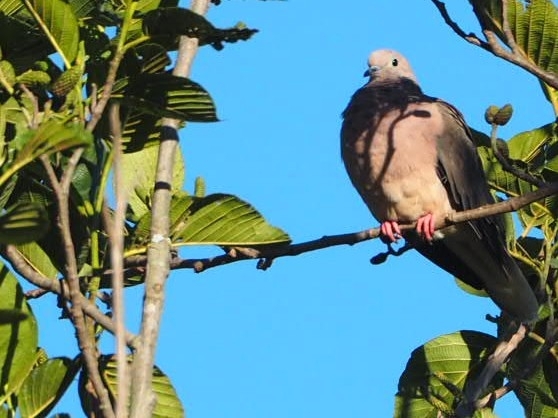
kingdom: Animalia
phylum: Chordata
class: Aves
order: Columbiformes
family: Columbidae
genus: Zenaida
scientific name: Zenaida auriculata
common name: Eared dove
